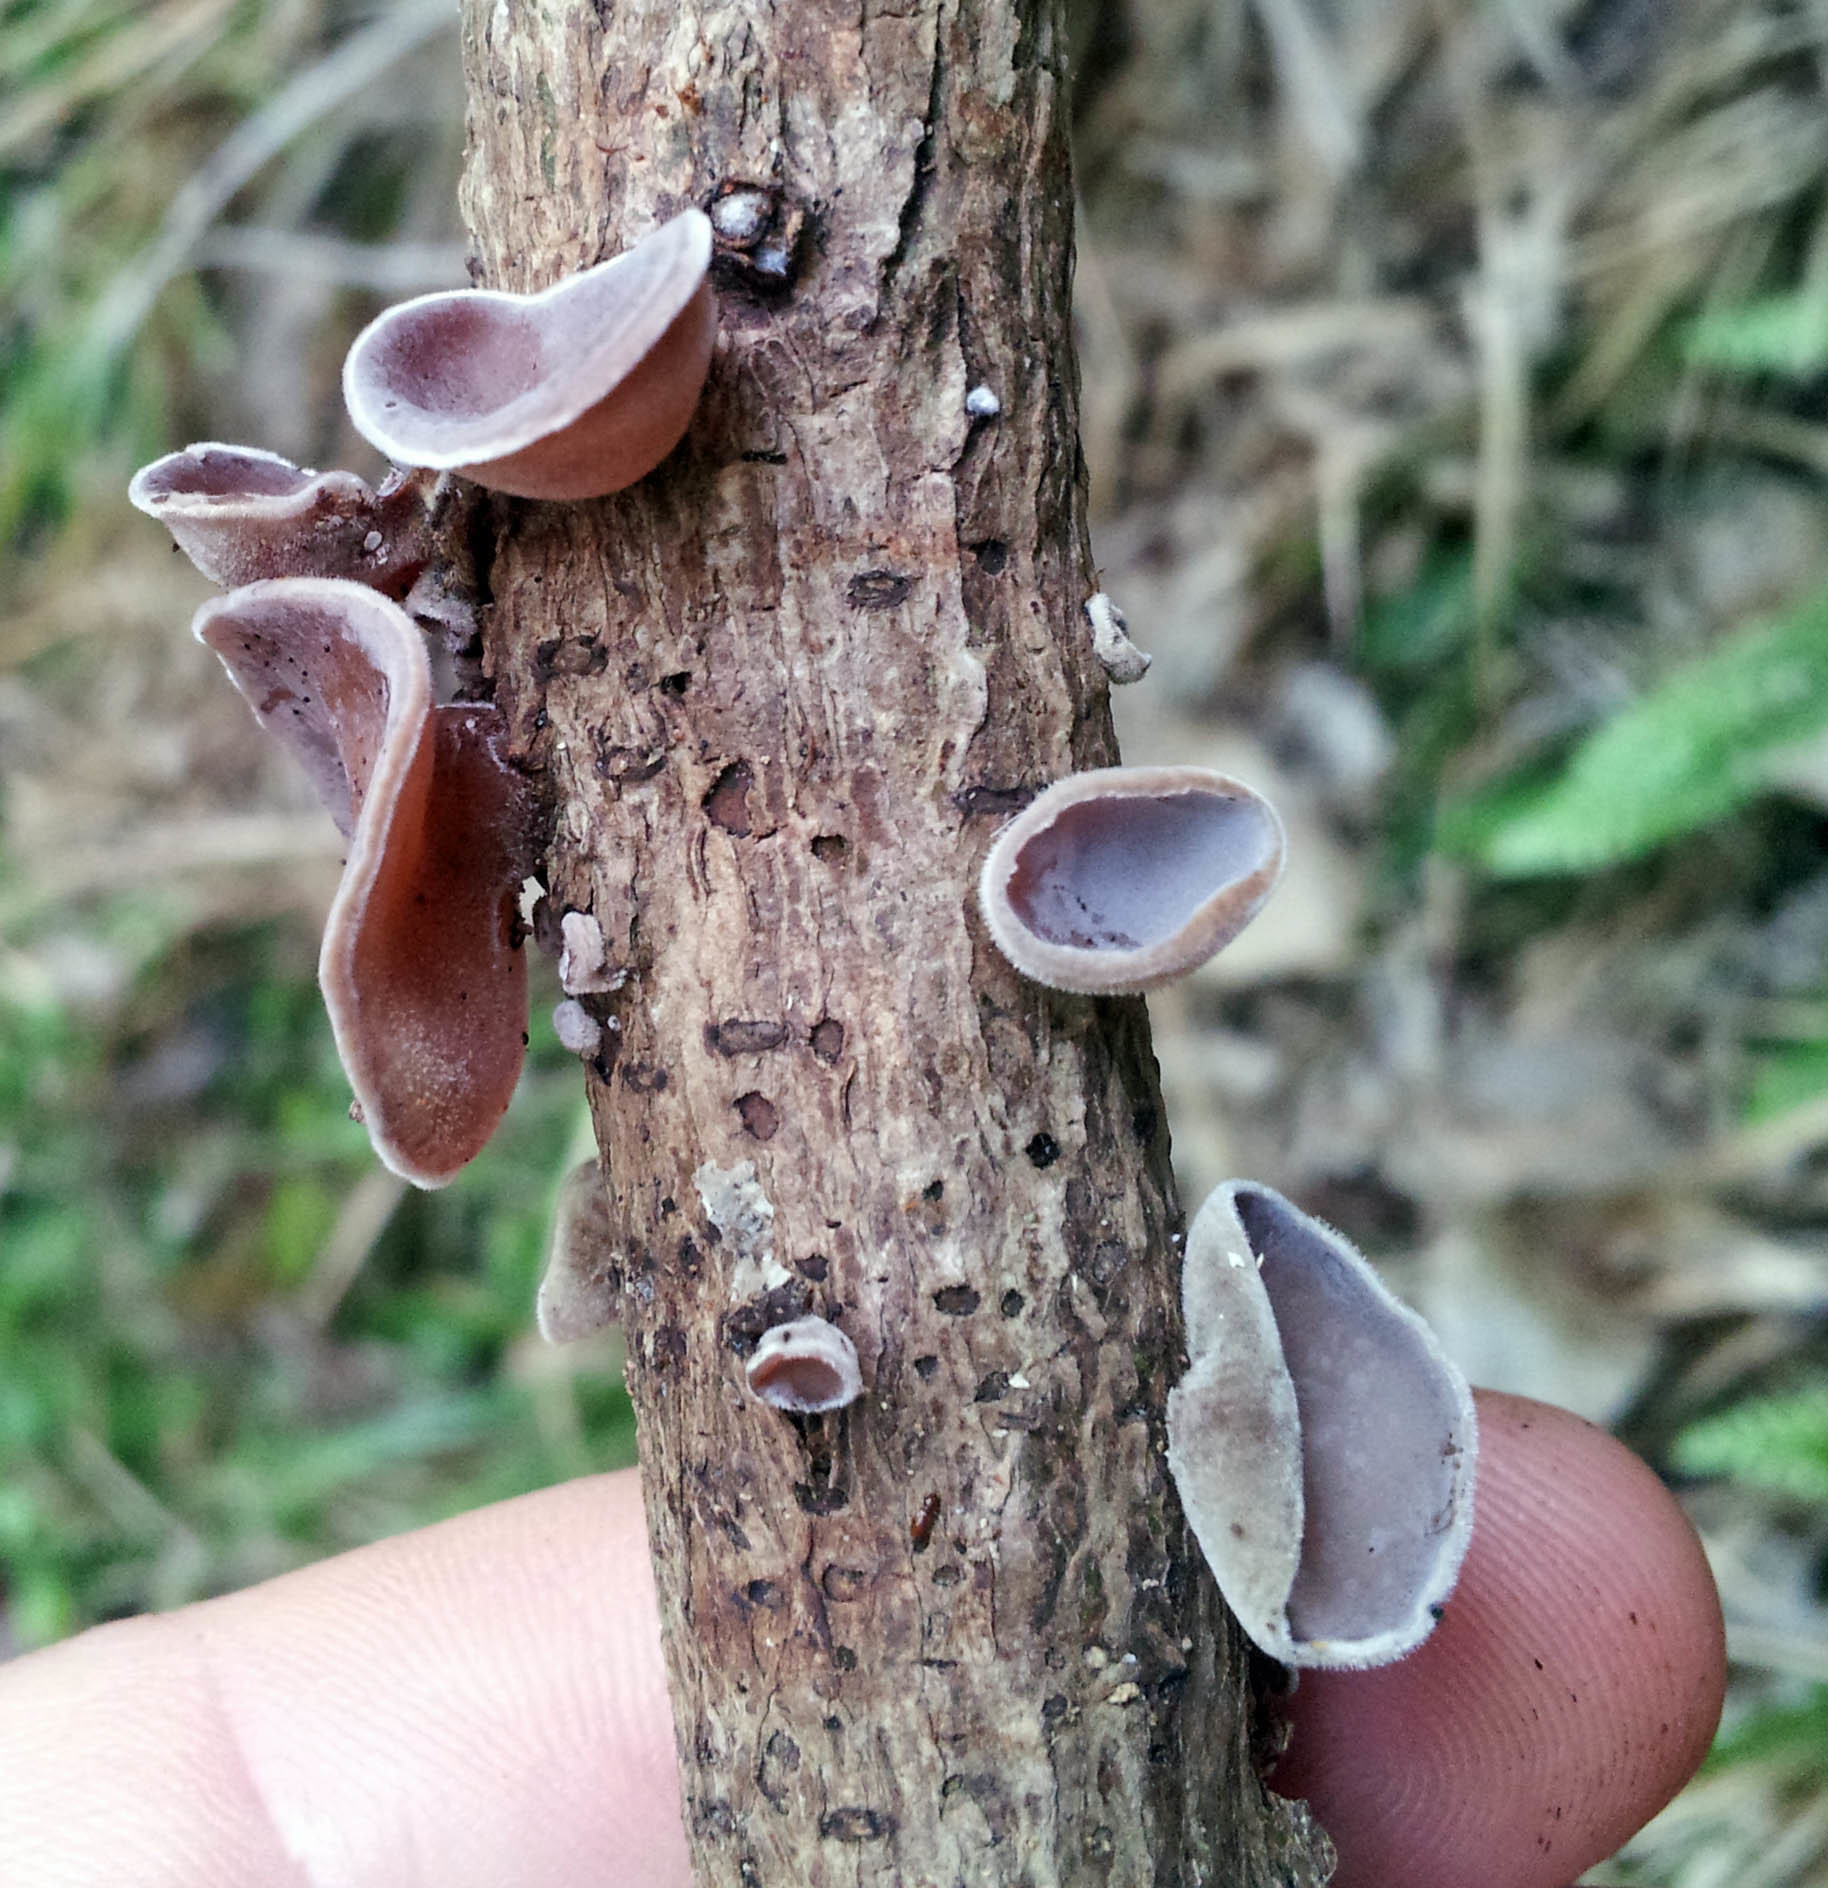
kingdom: Fungi
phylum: Basidiomycota
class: Agaricomycetes
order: Auriculariales
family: Auriculariaceae
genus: Auricularia
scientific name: Auricularia cornea
